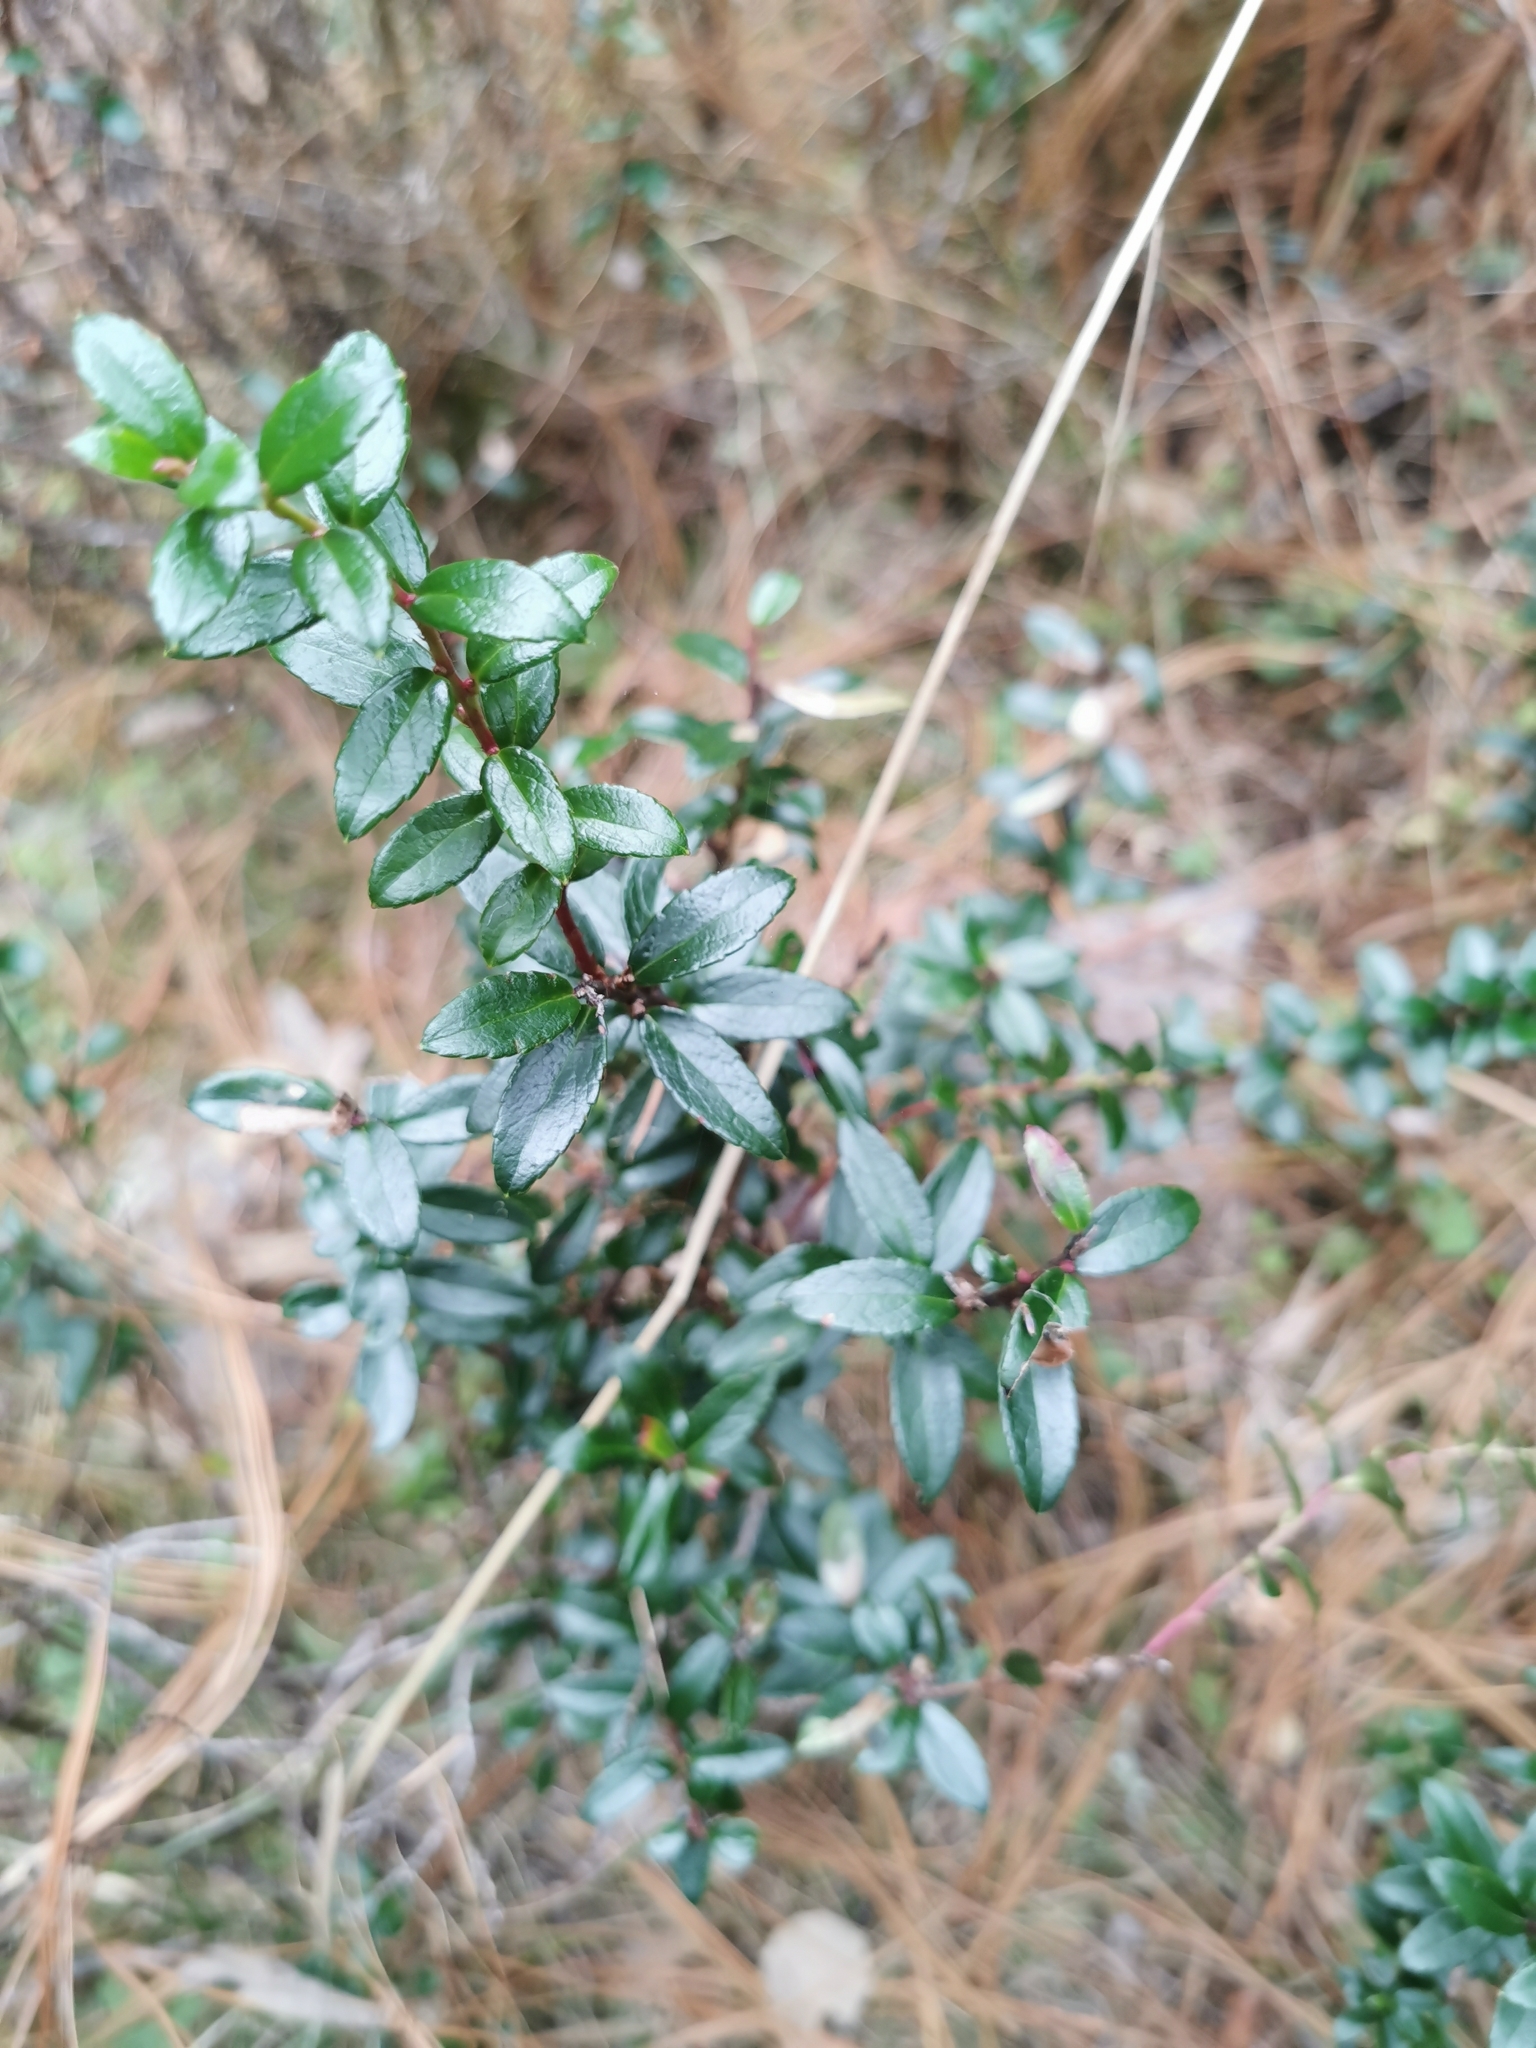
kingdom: Plantae
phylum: Tracheophyta
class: Magnoliopsida
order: Ericales
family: Ericaceae
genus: Gaultheria
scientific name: Gaultheria myrsinoides
